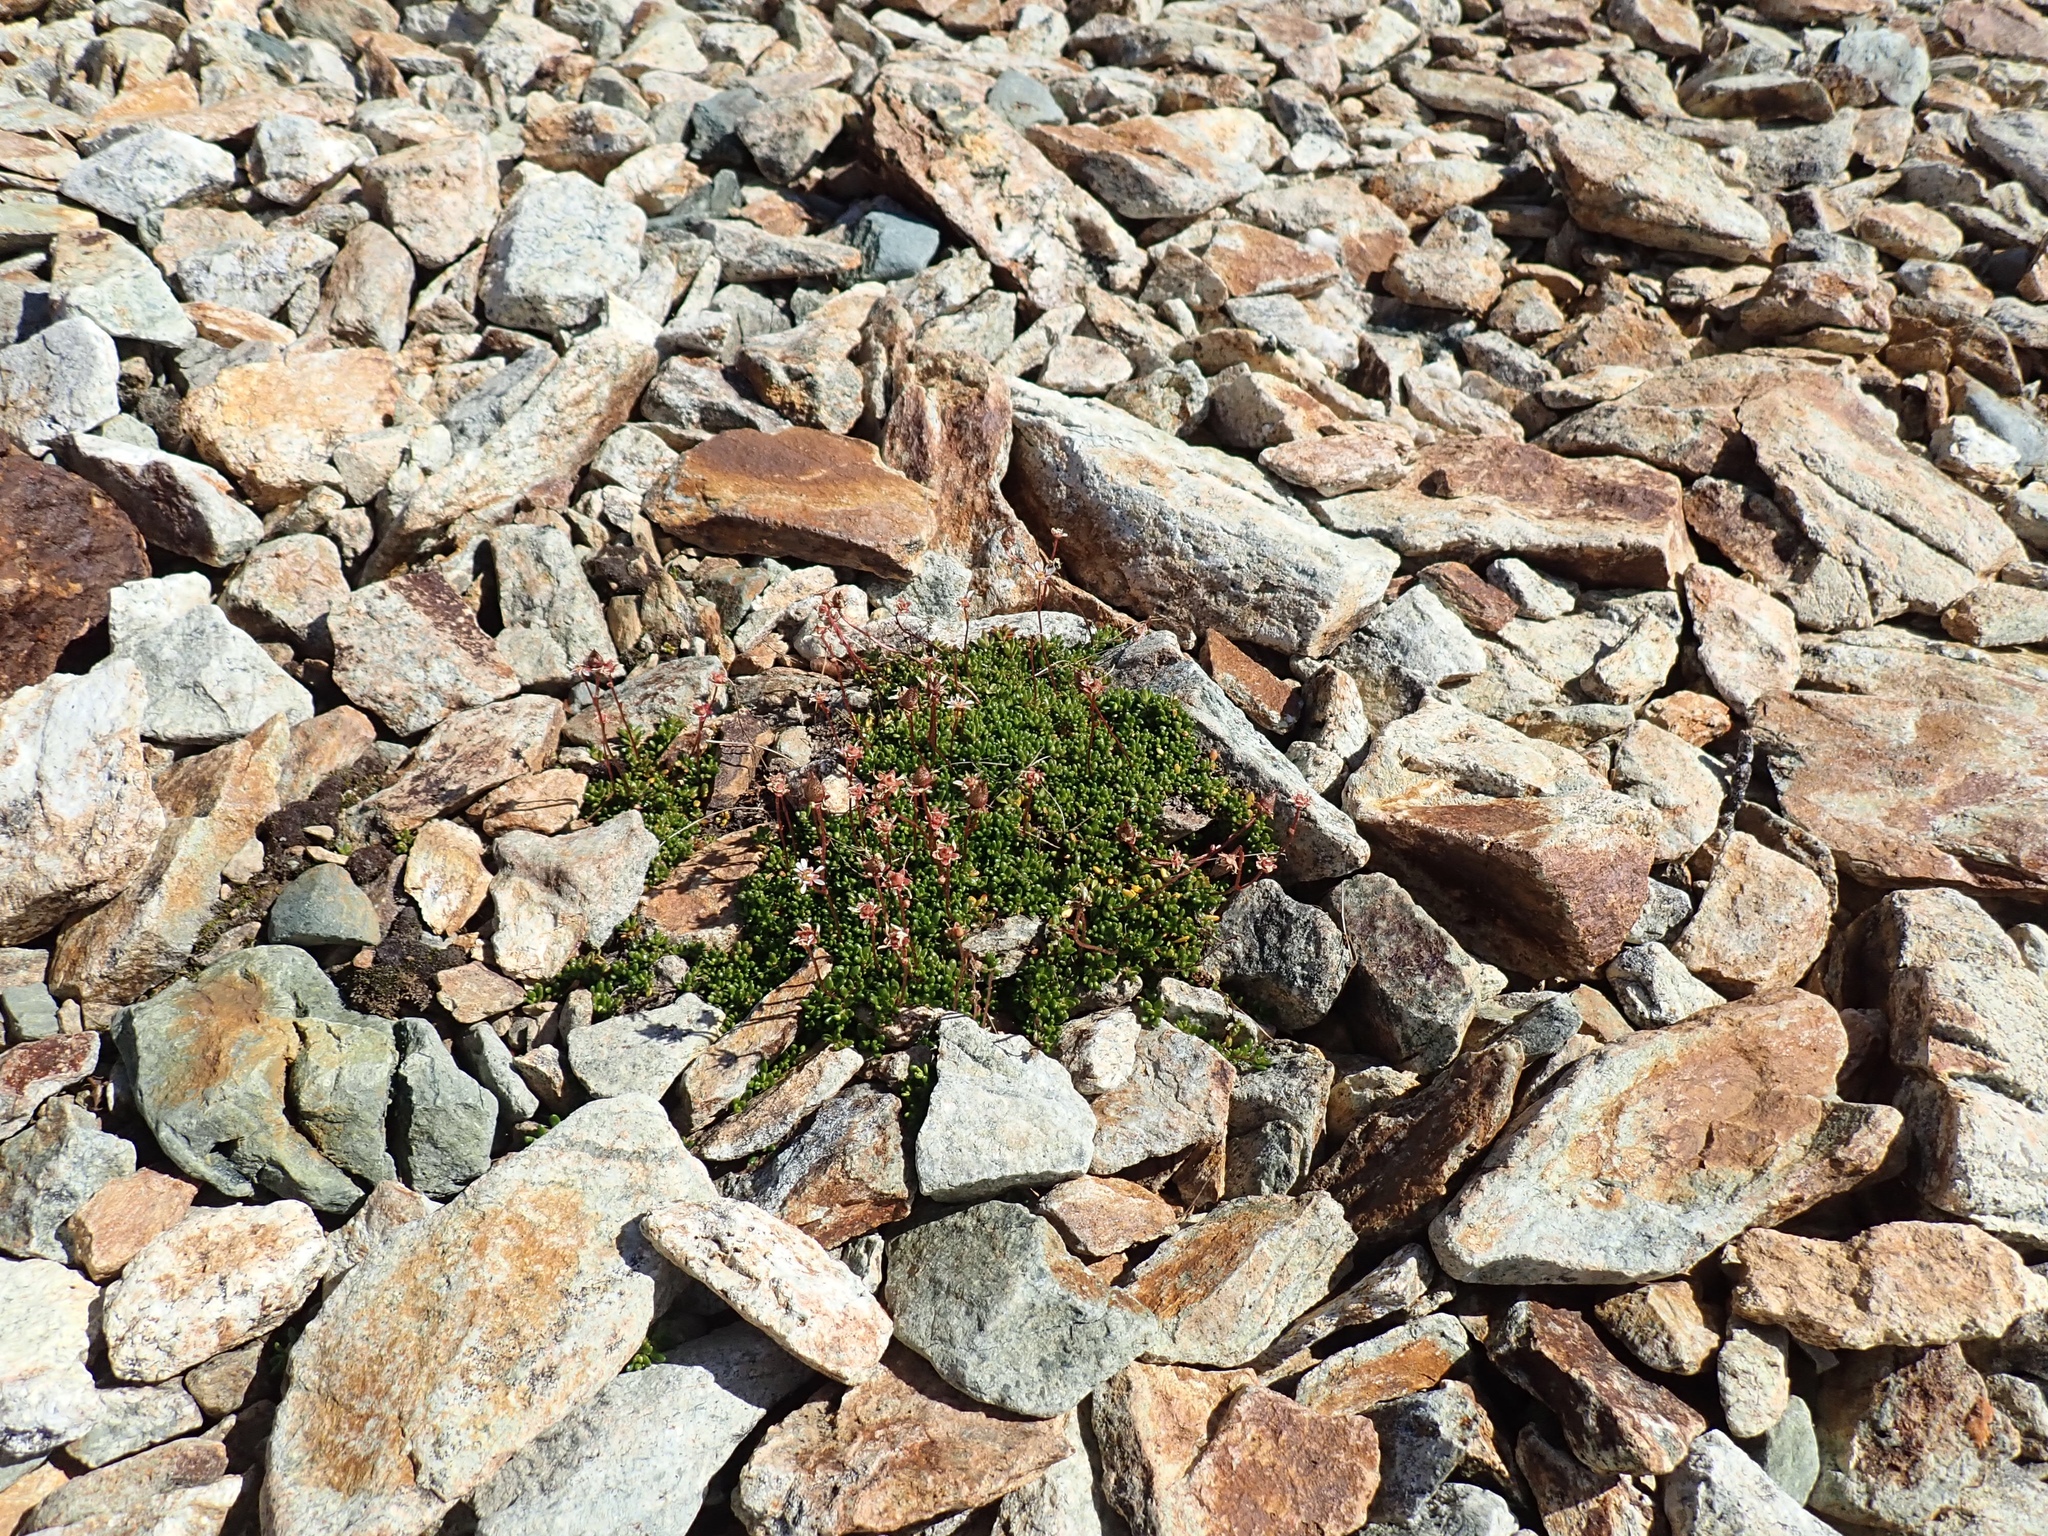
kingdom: Plantae
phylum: Tracheophyta
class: Magnoliopsida
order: Saxifragales
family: Saxifragaceae
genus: Micranthes
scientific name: Micranthes tolmiei
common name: Tolmie's saxifrage
